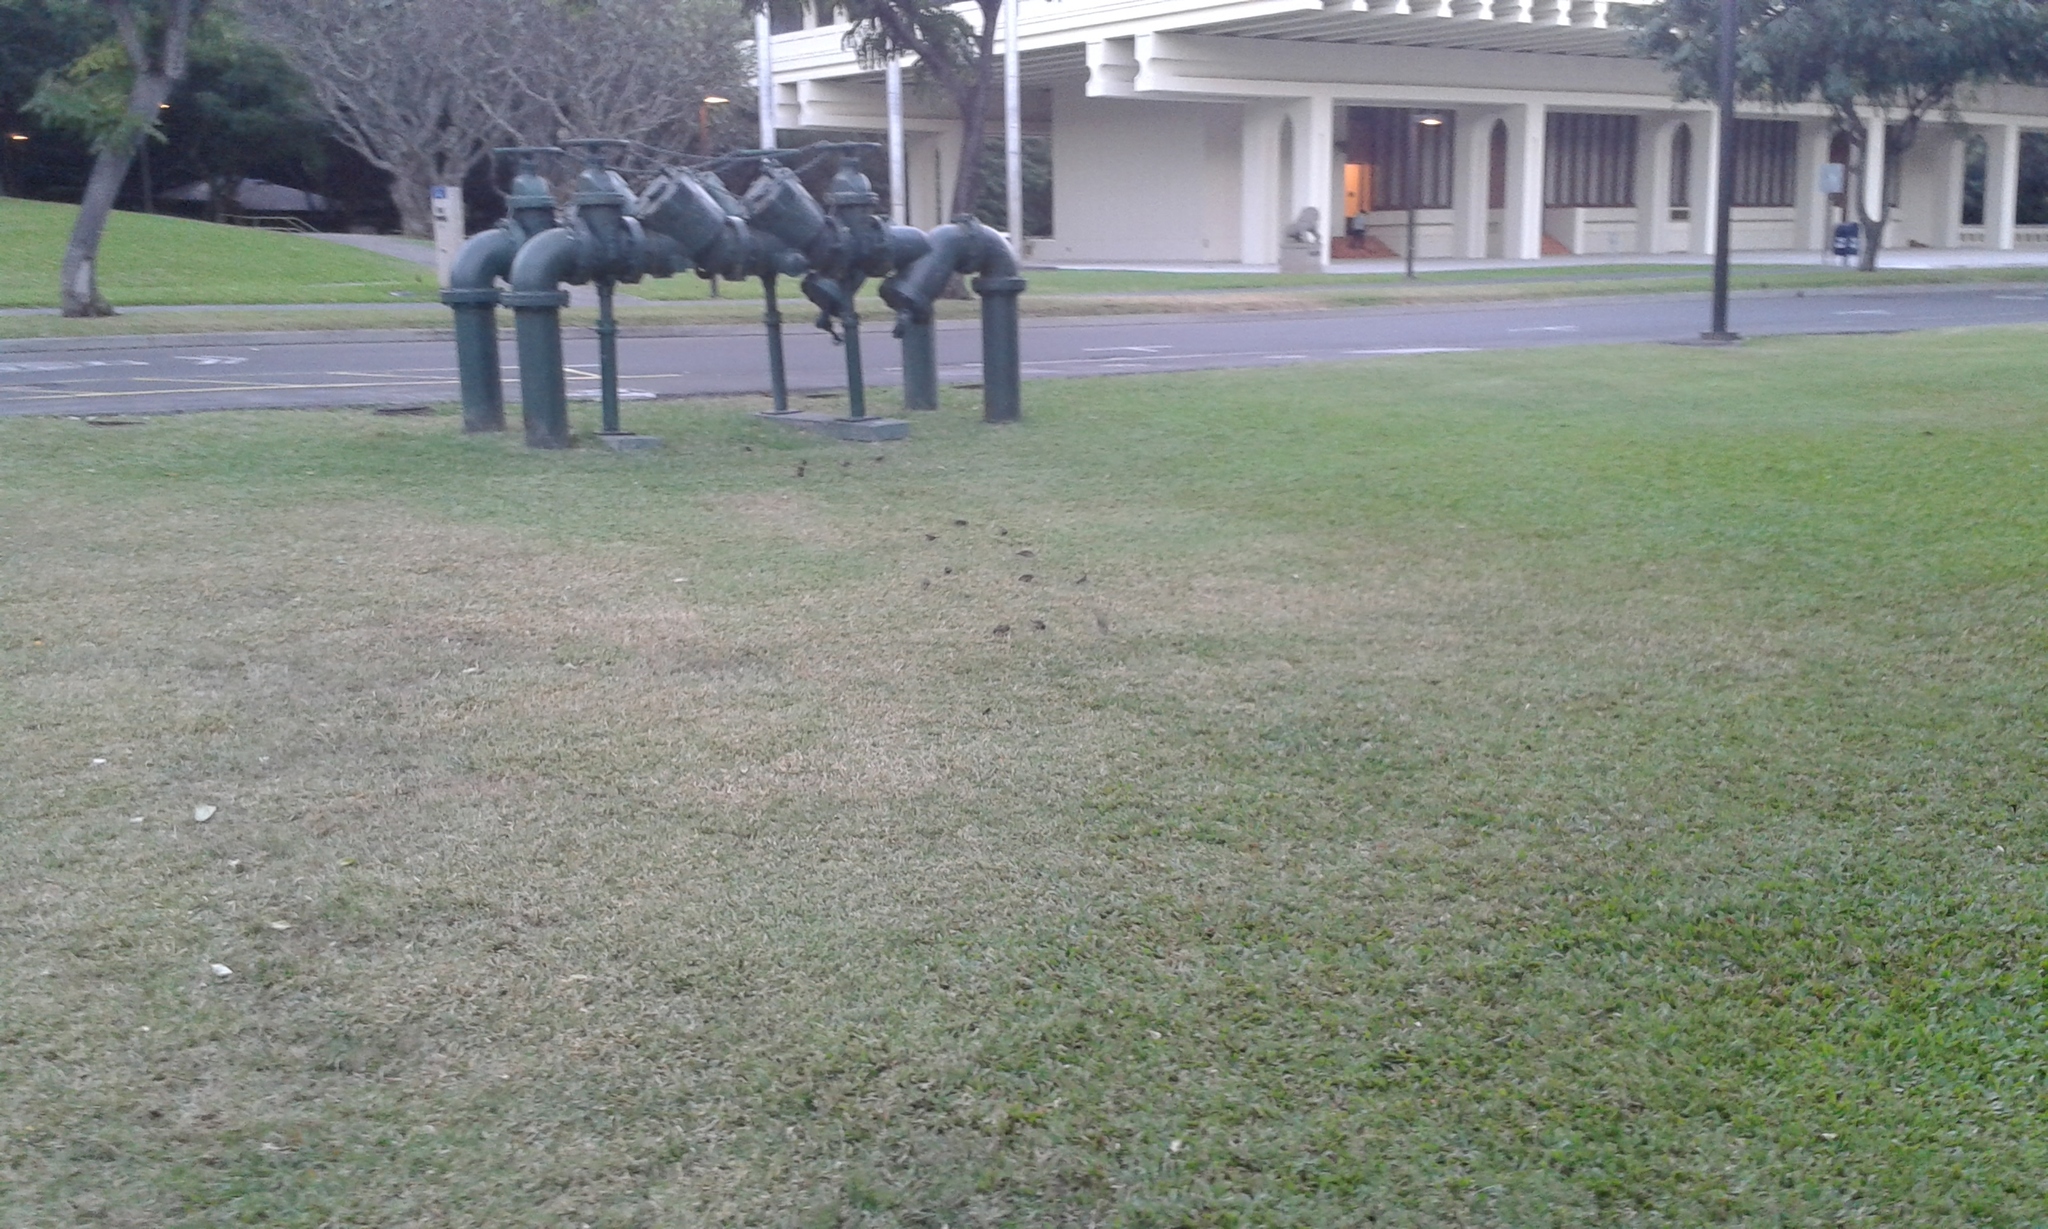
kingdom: Animalia
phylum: Chordata
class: Aves
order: Passeriformes
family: Estrildidae
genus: Estrilda
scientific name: Estrilda astrild
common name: Common waxbill
